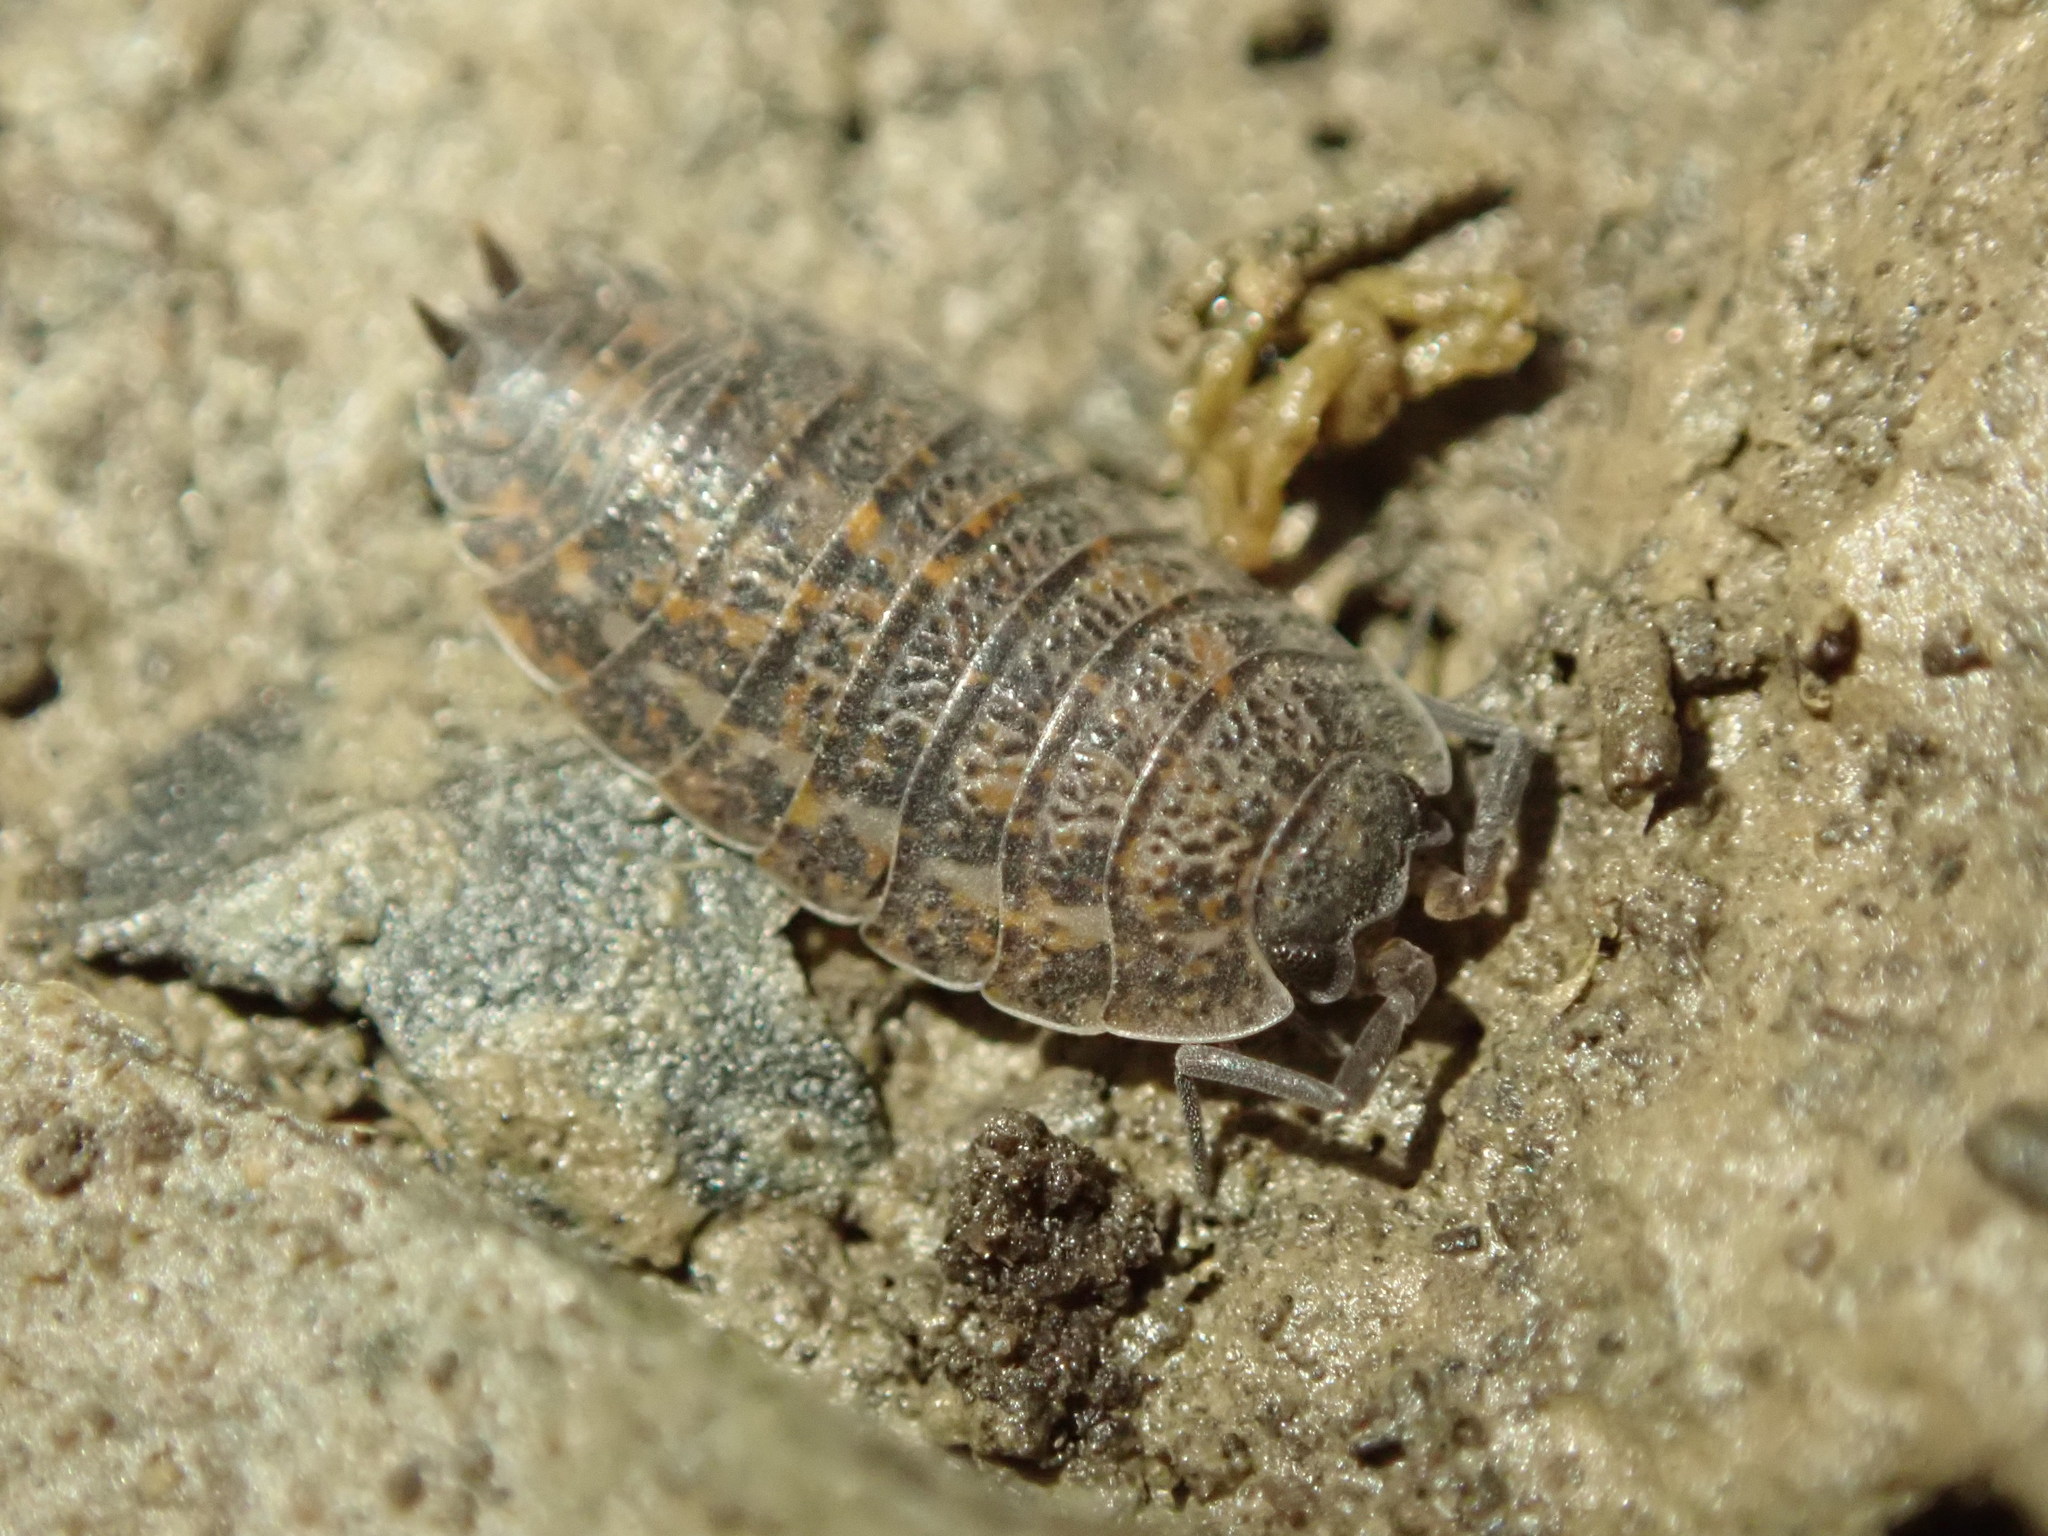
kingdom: Animalia
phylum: Arthropoda
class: Malacostraca
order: Isopoda
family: Trachelipodidae
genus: Trachelipus
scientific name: Trachelipus rathkii
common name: Isopod
